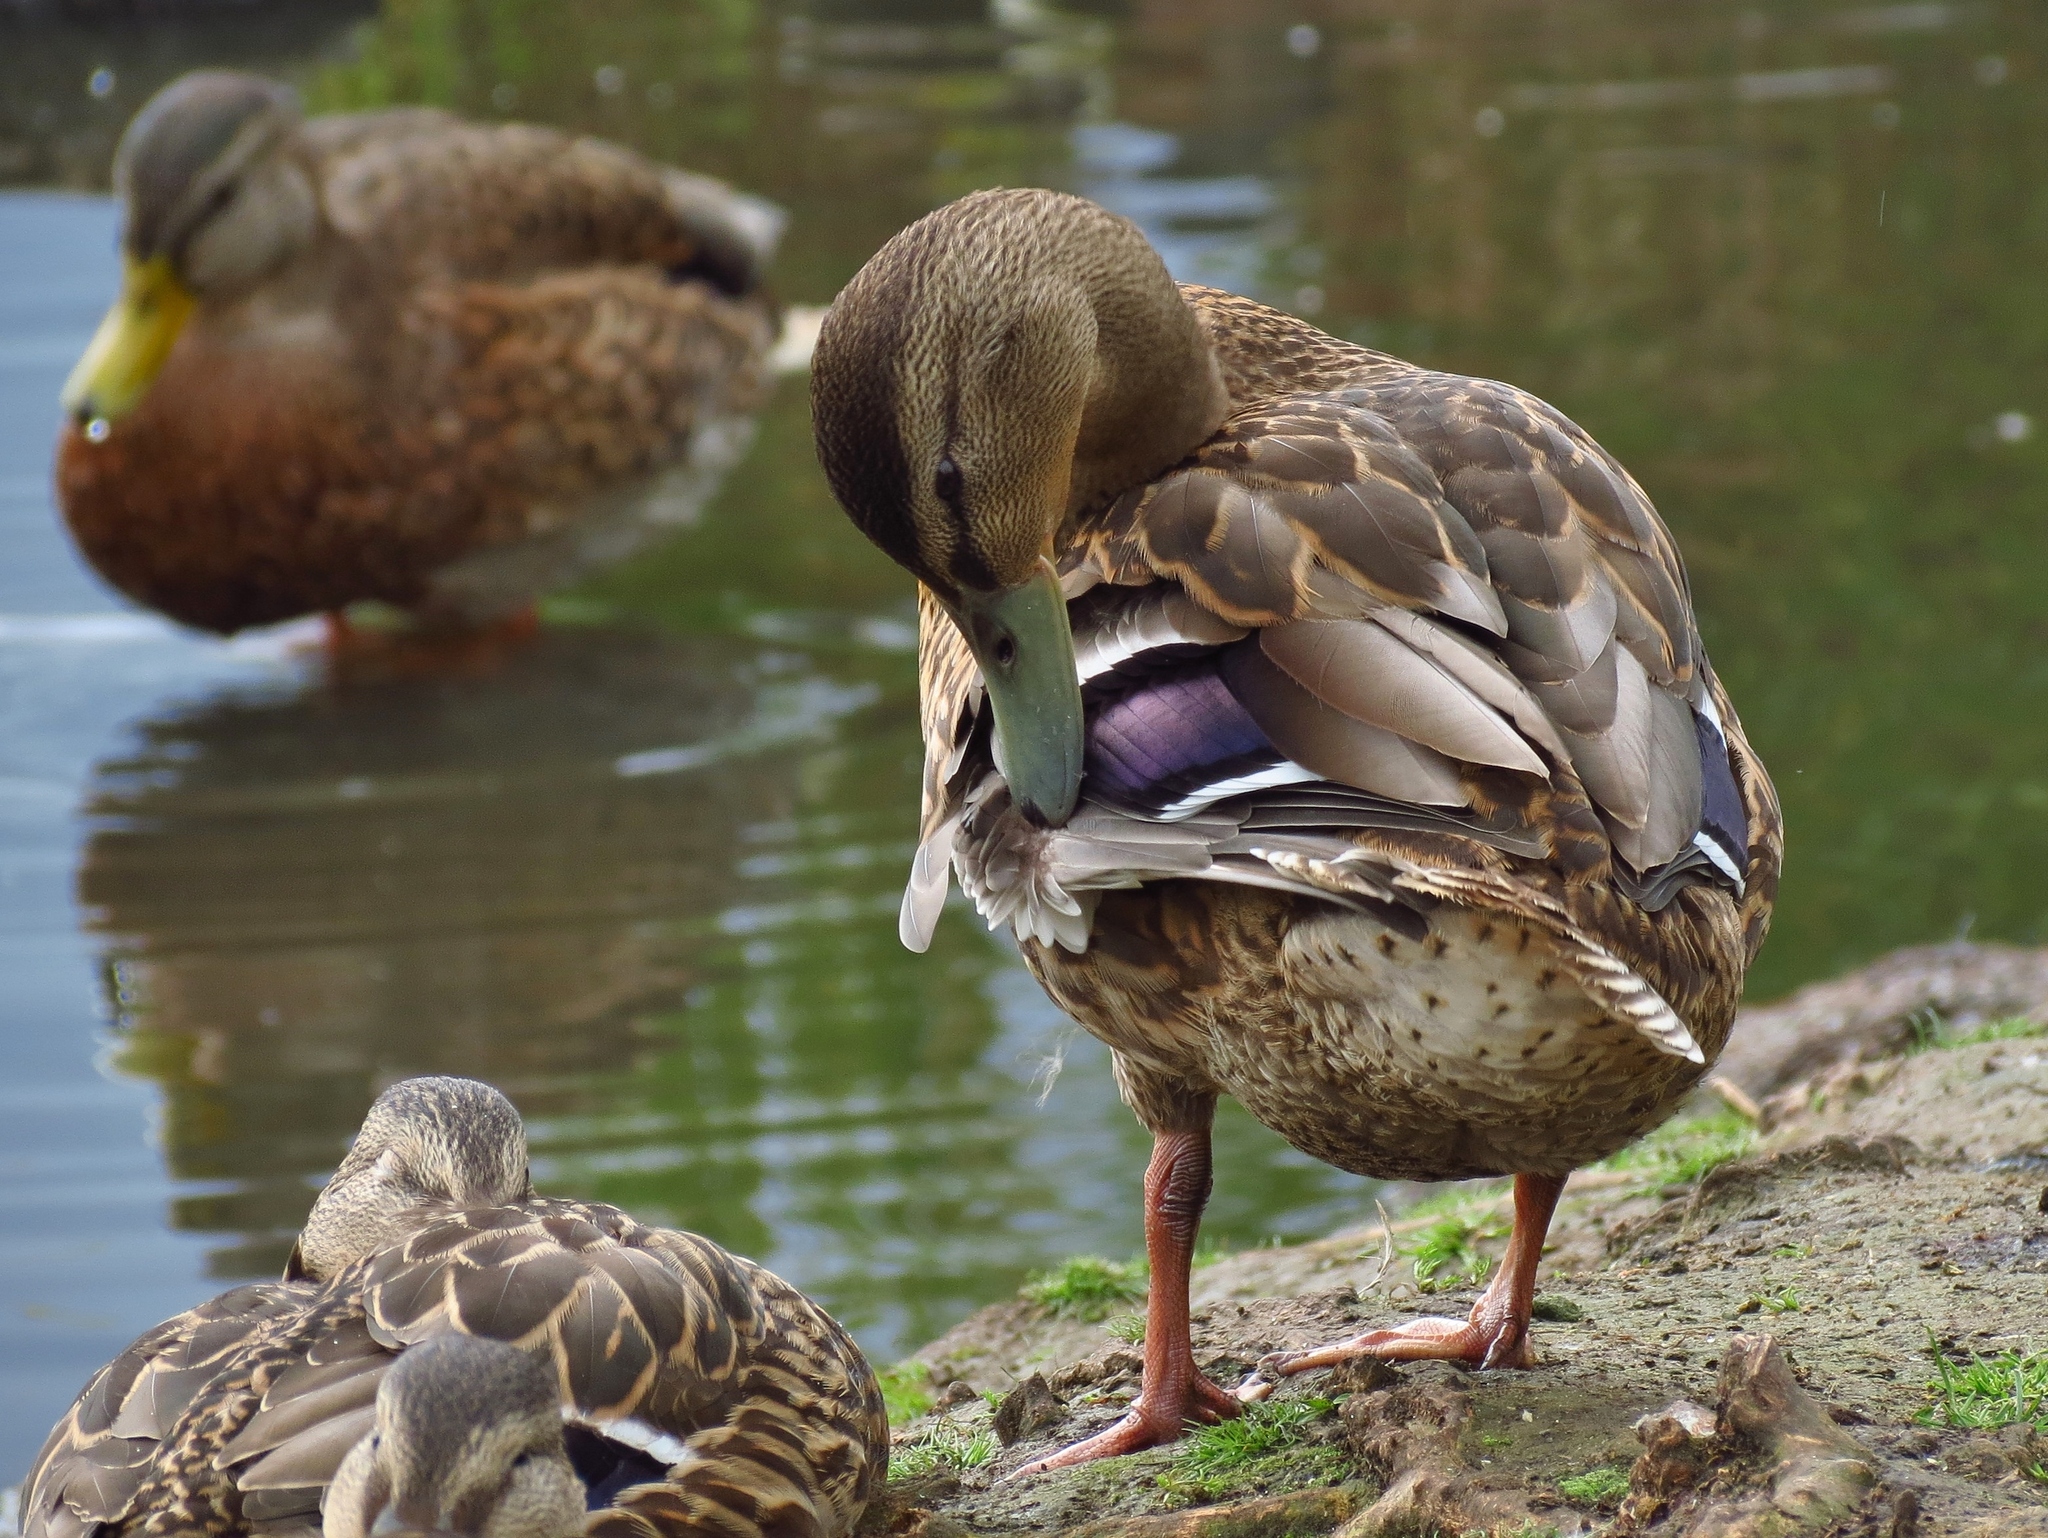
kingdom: Animalia
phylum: Chordata
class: Aves
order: Anseriformes
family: Anatidae
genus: Anas
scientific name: Anas platyrhynchos
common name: Mallard
